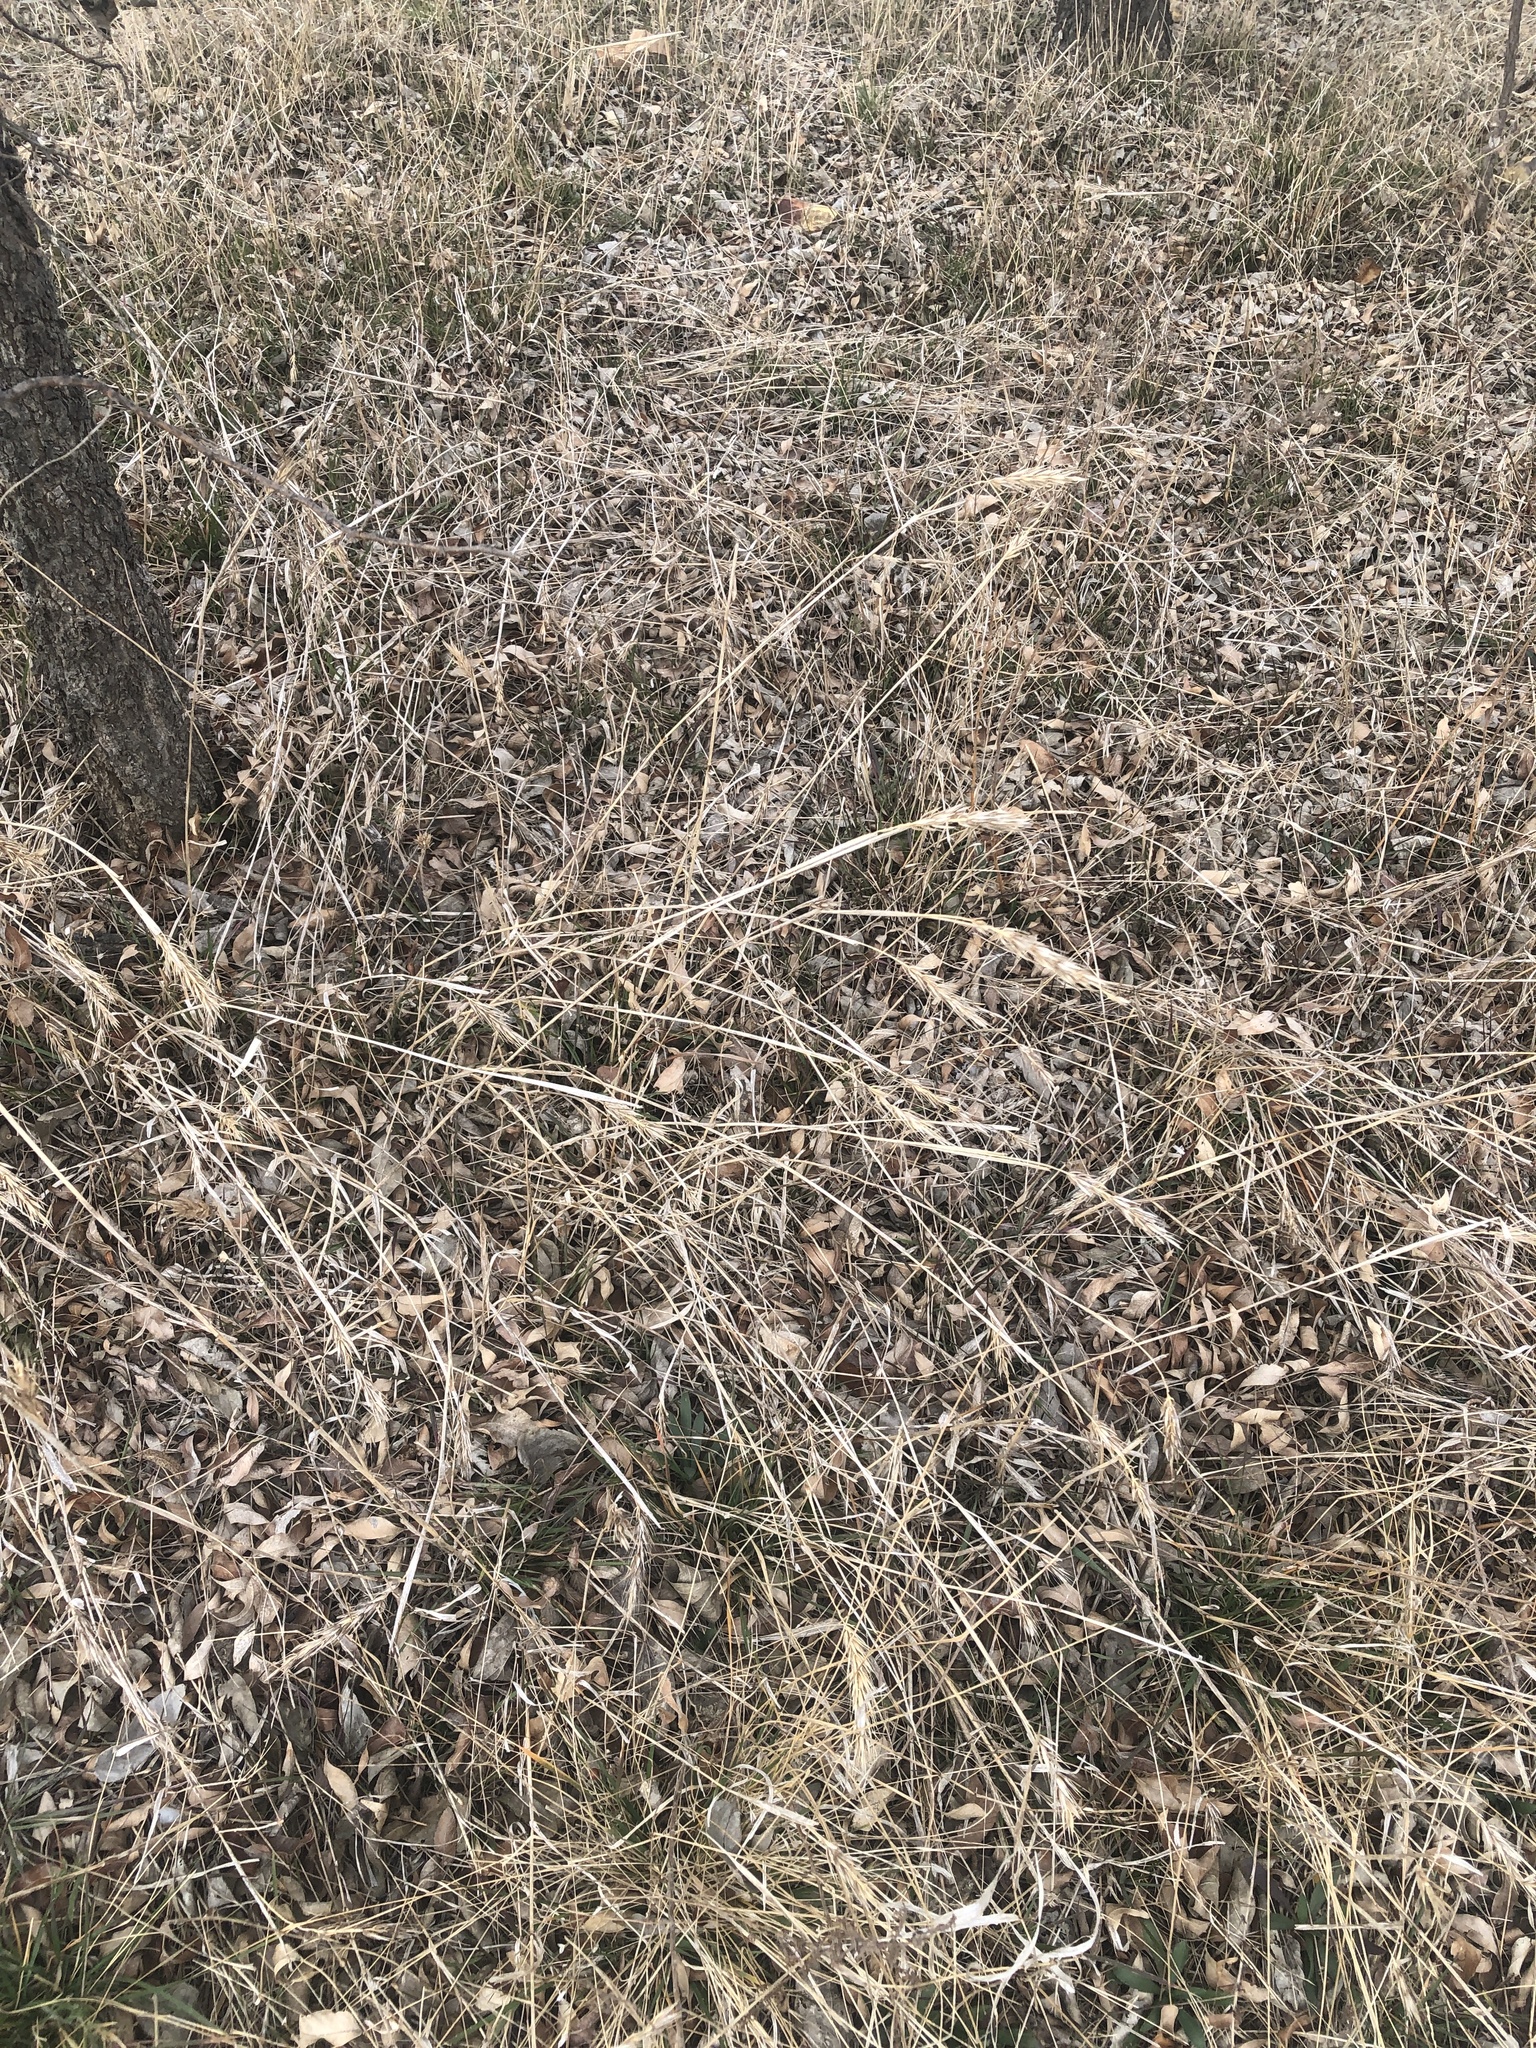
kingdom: Plantae
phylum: Tracheophyta
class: Liliopsida
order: Poales
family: Poaceae
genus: Elymus
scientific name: Elymus virginicus
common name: Common eastern wildrye
